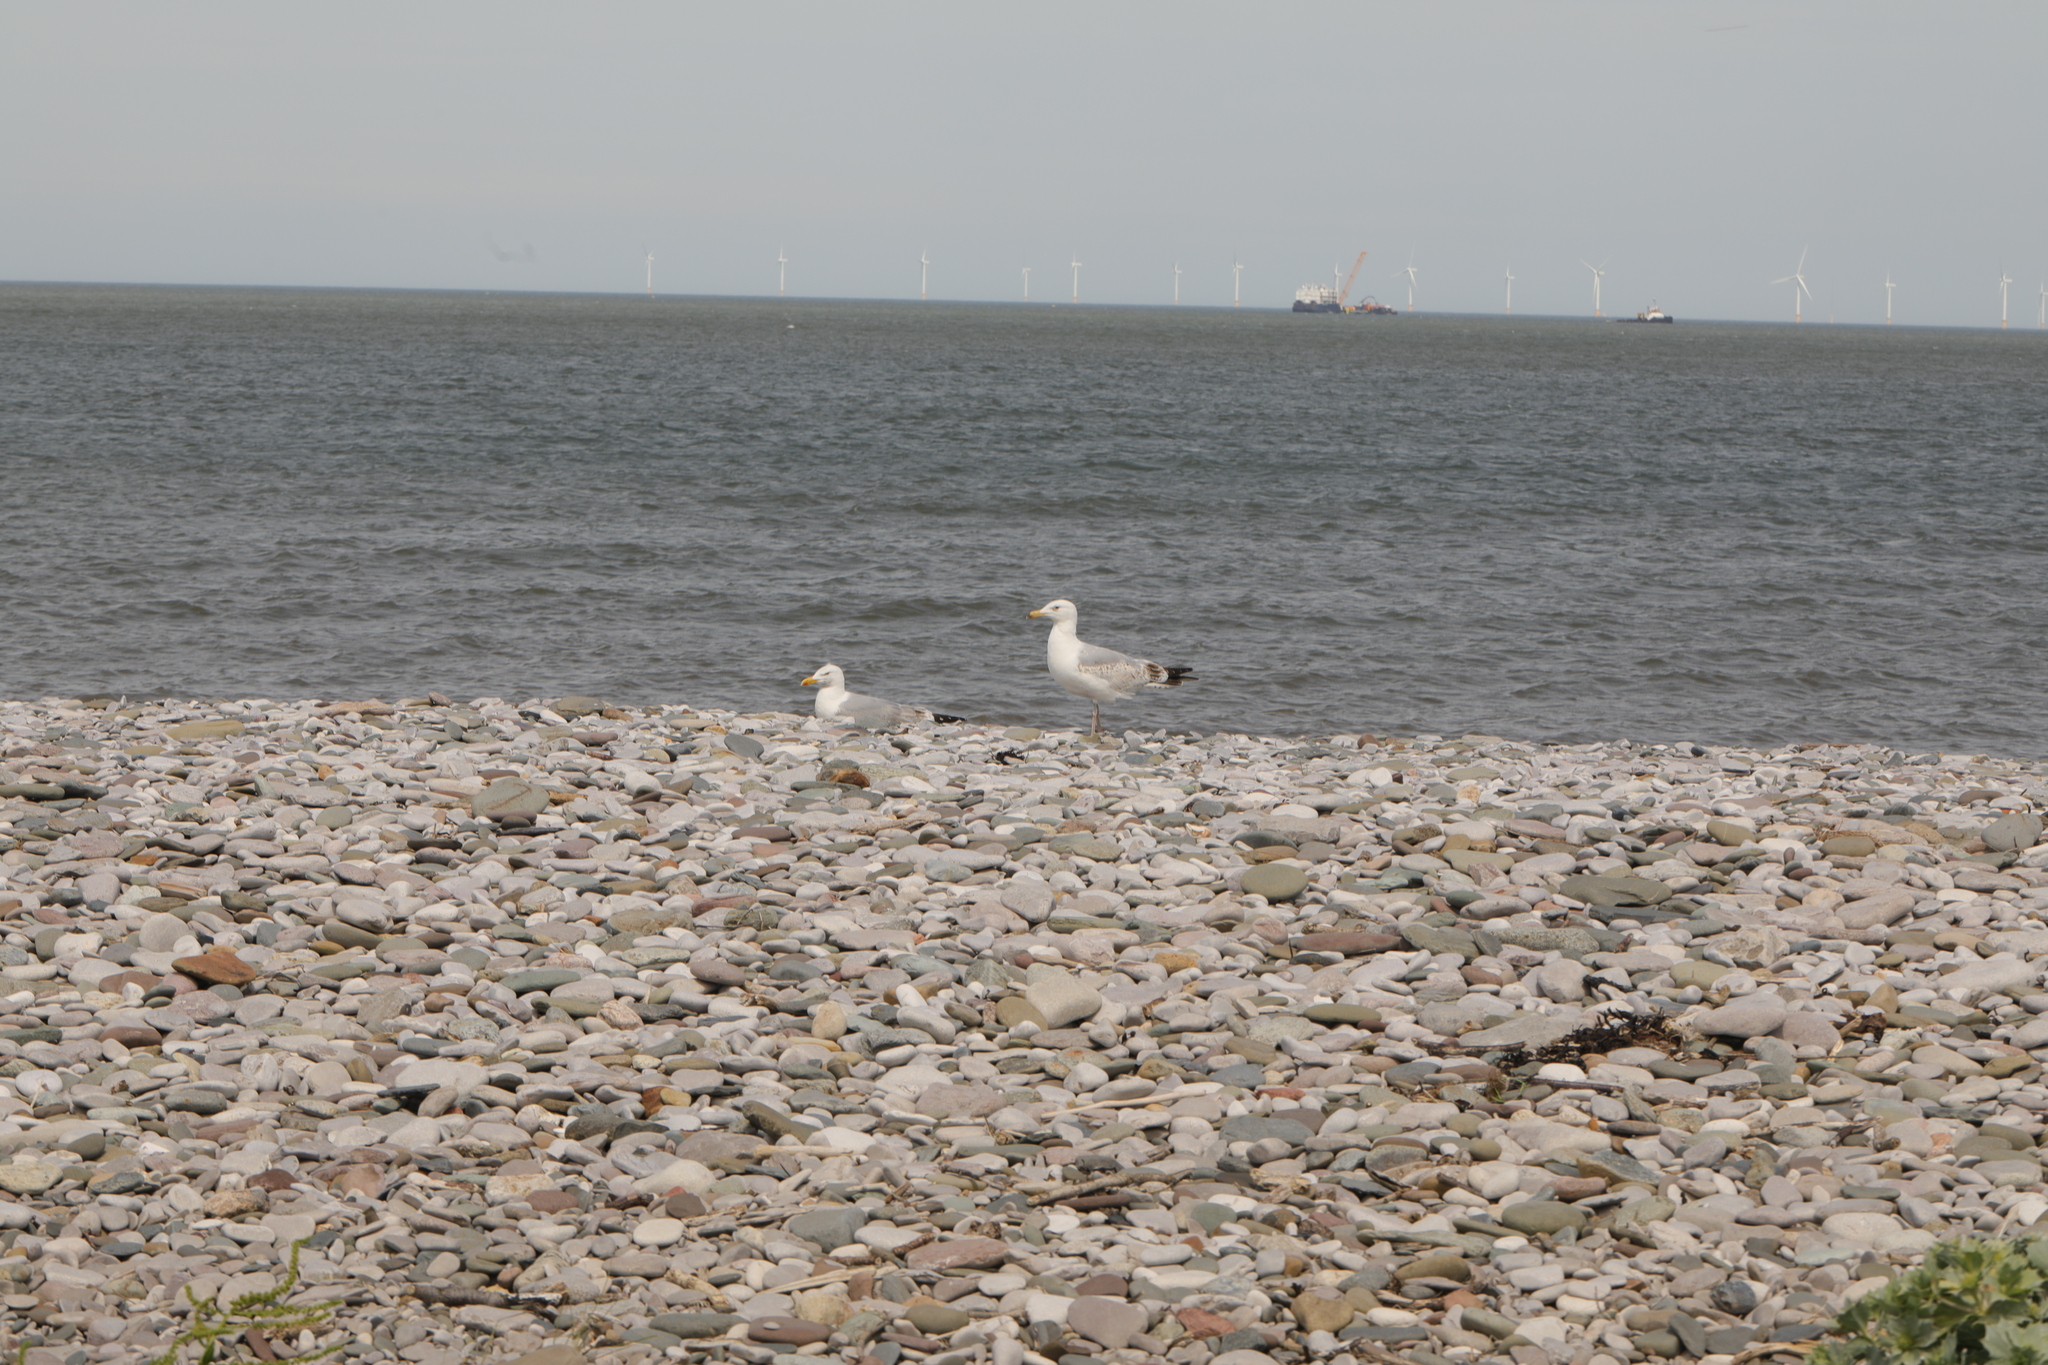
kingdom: Animalia
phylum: Chordata
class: Aves
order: Charadriiformes
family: Laridae
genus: Larus
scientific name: Larus argentatus
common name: Herring gull
